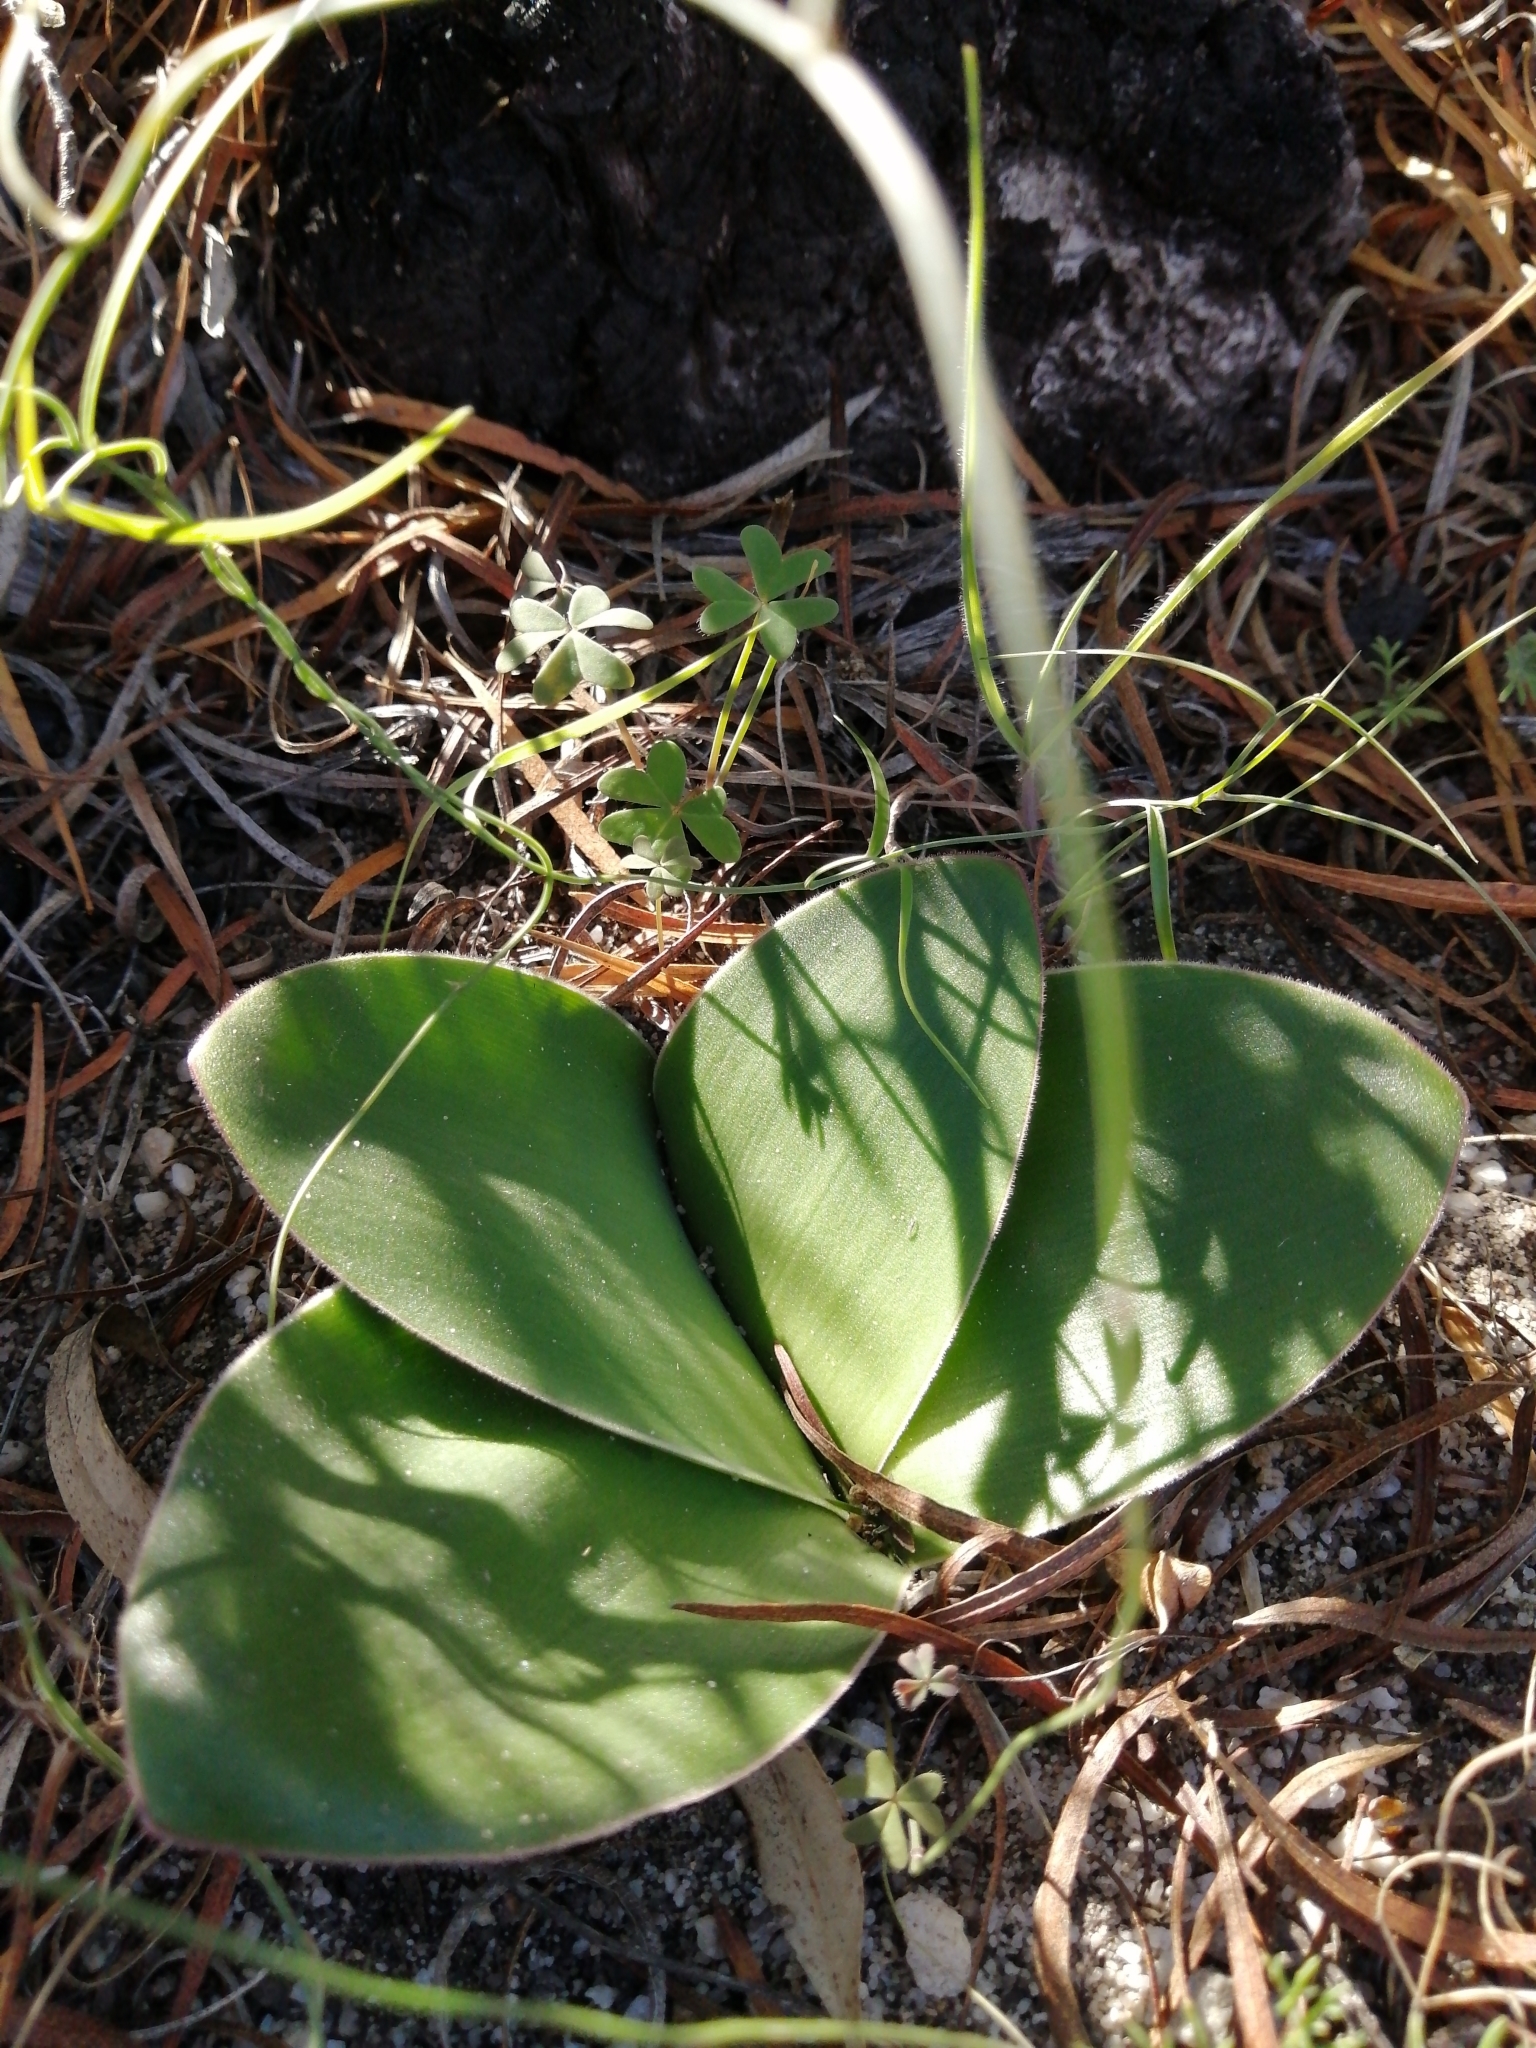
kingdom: Plantae
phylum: Tracheophyta
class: Liliopsida
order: Asparagales
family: Amaryllidaceae
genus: Brunsvigia
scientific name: Brunsvigia orientalis
